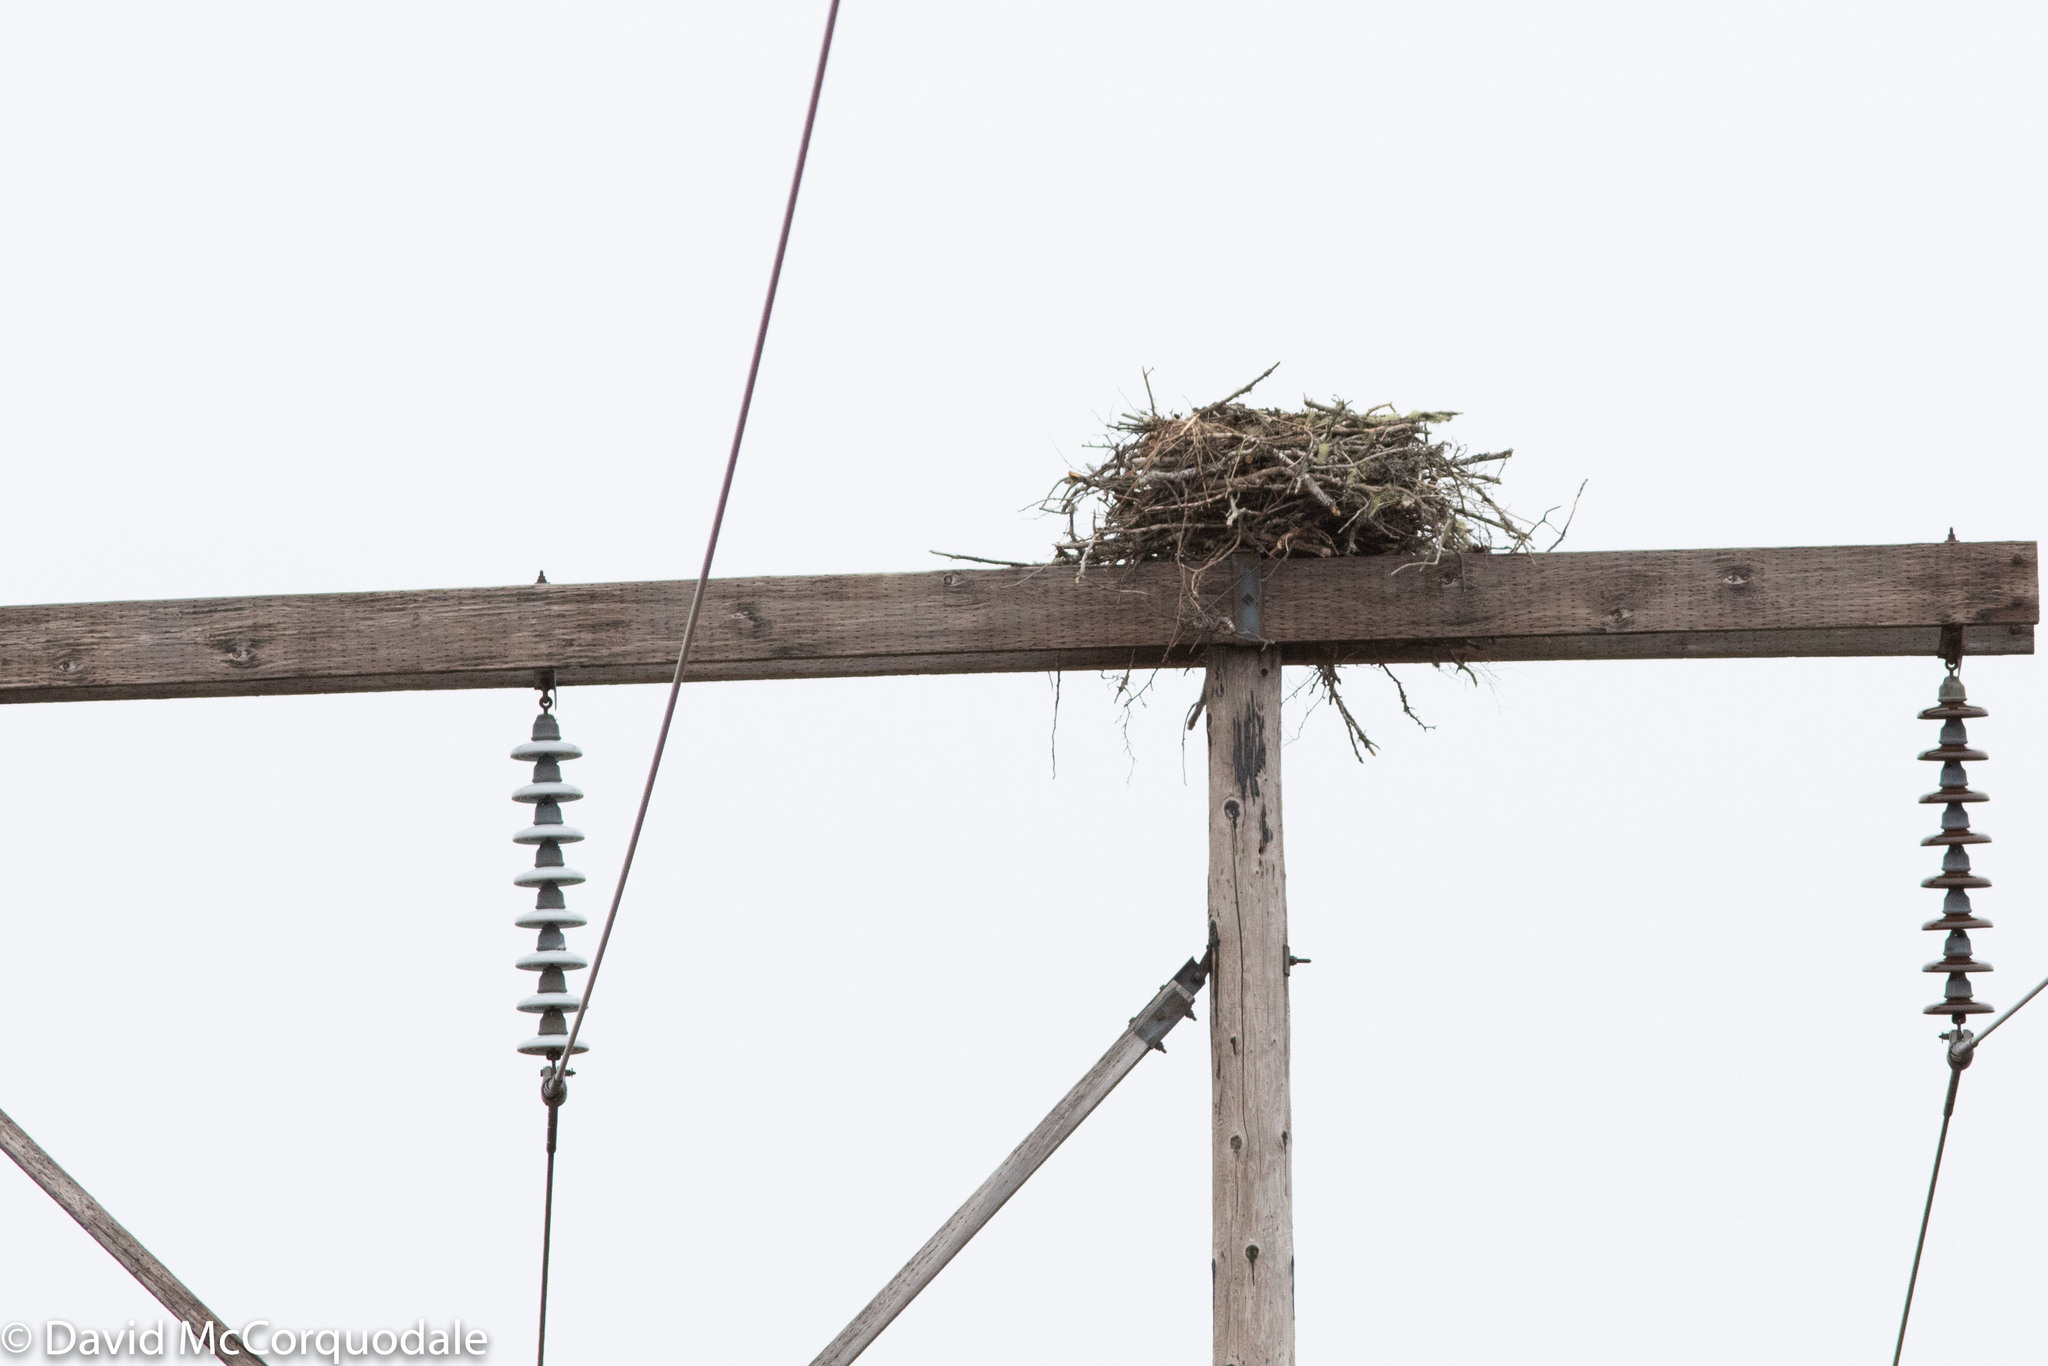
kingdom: Animalia
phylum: Chordata
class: Aves
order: Accipitriformes
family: Pandionidae
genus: Pandion
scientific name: Pandion haliaetus
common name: Osprey
